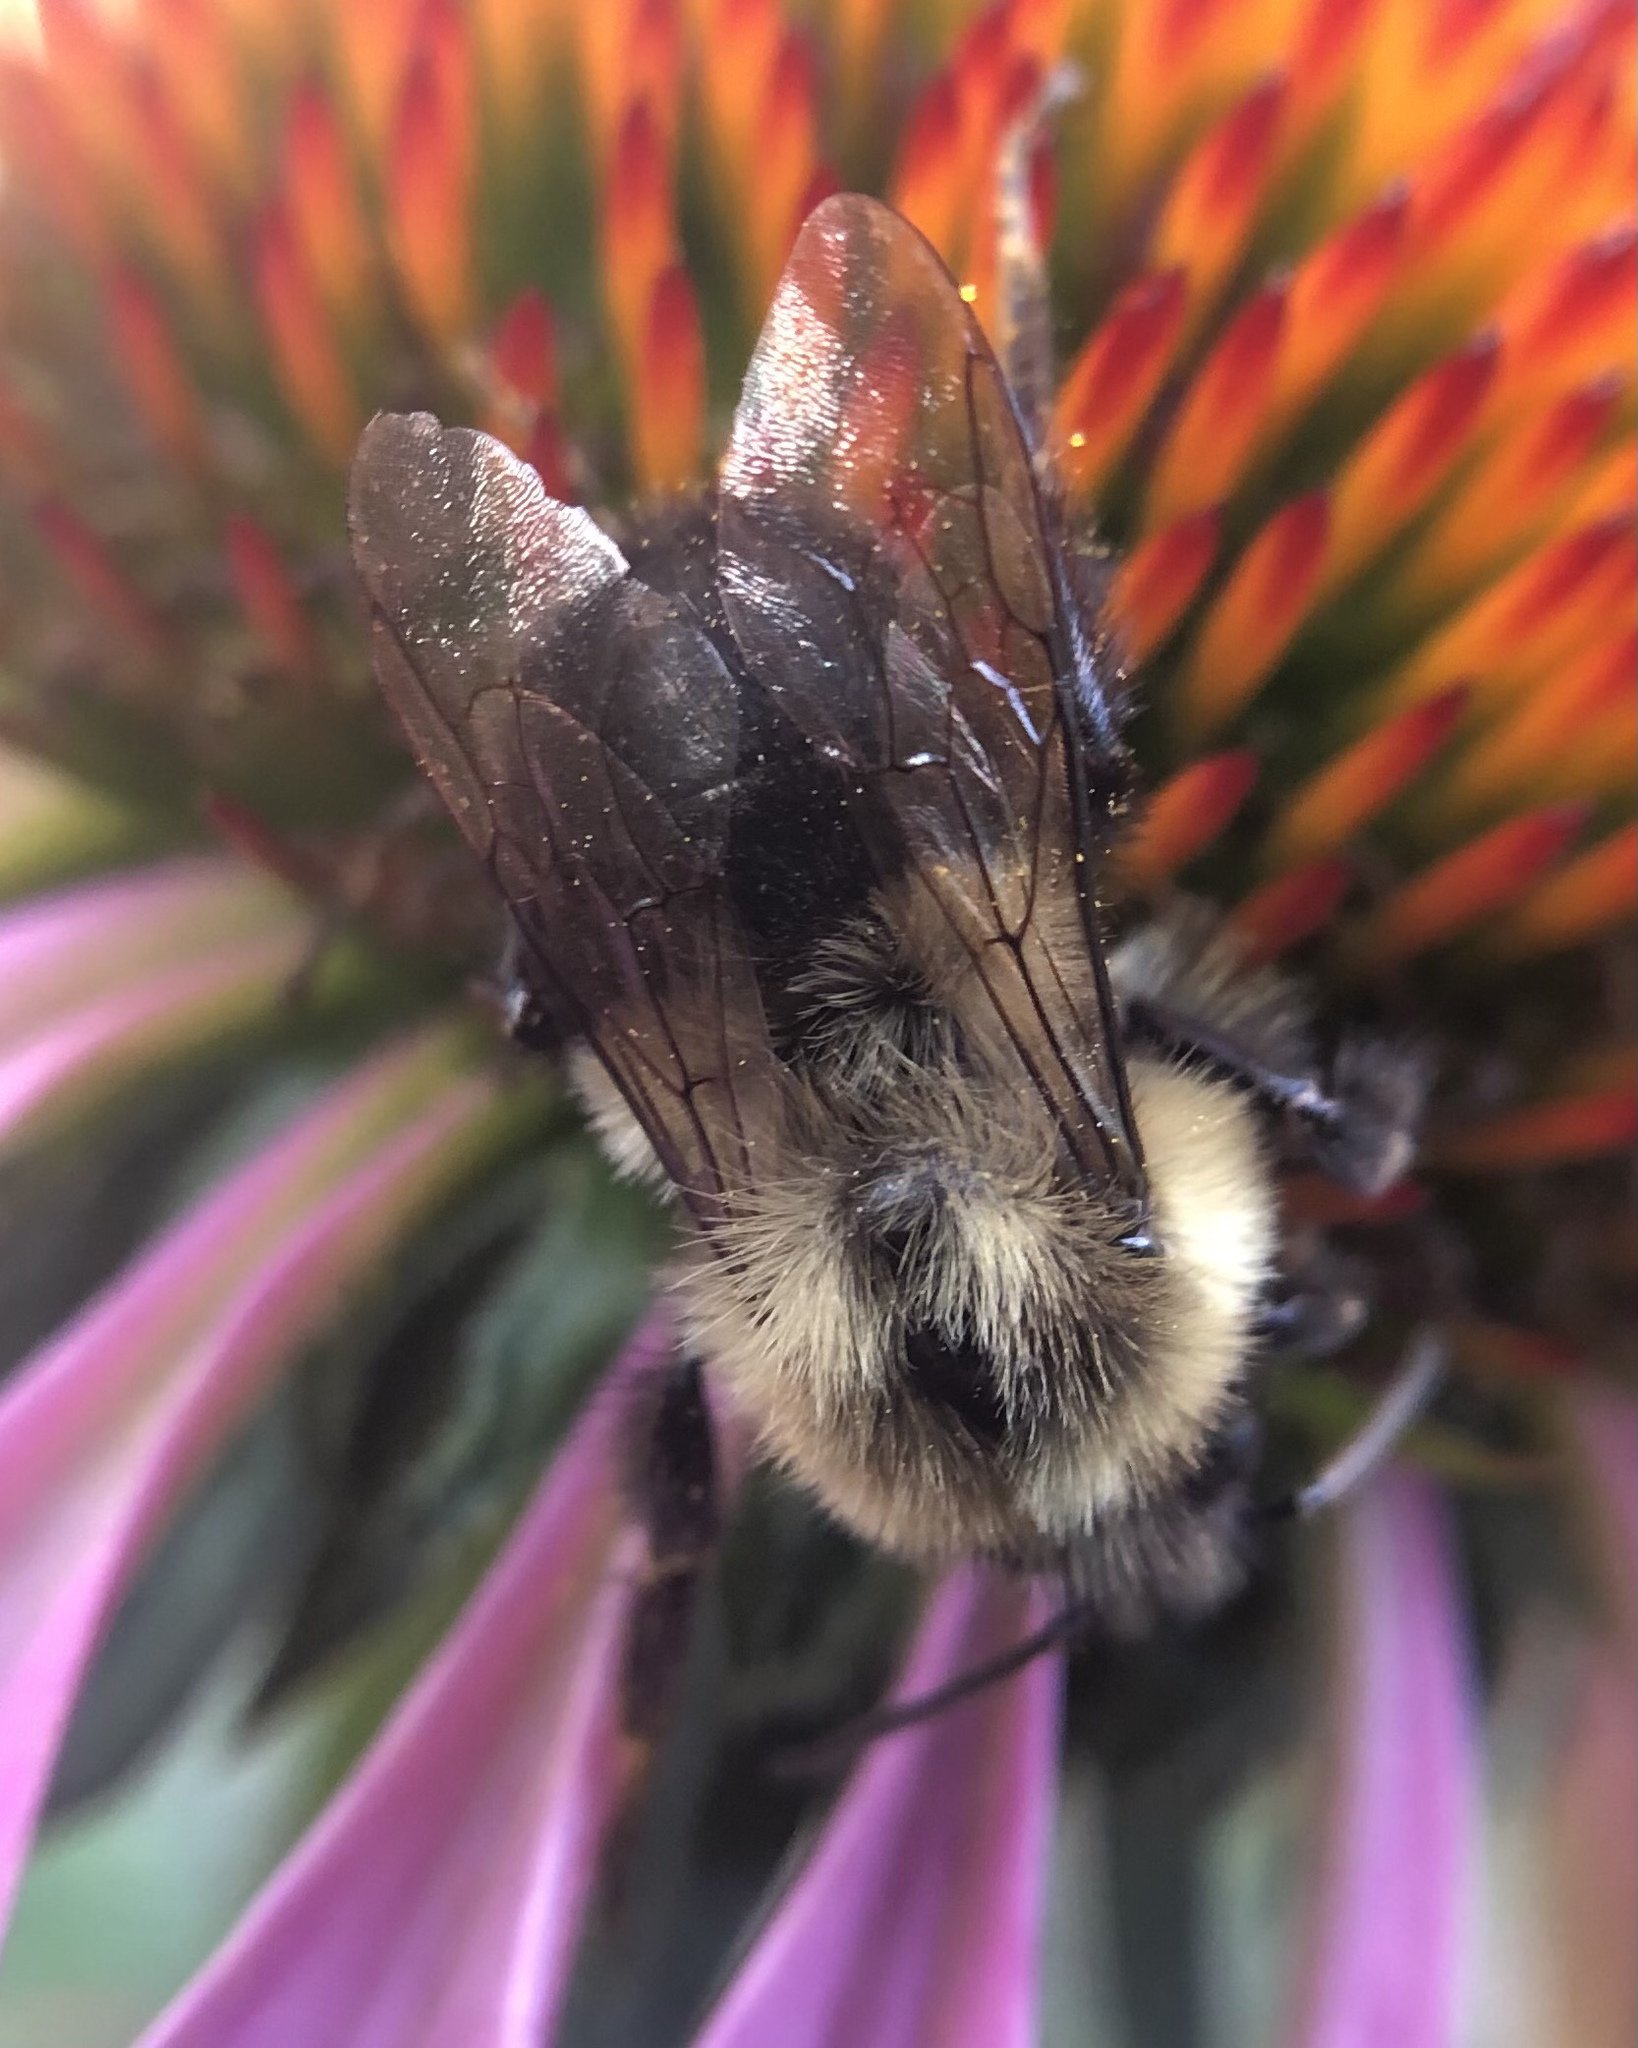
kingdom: Animalia
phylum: Arthropoda
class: Insecta
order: Hymenoptera
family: Apidae
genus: Bombus
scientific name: Bombus impatiens
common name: Common eastern bumble bee
